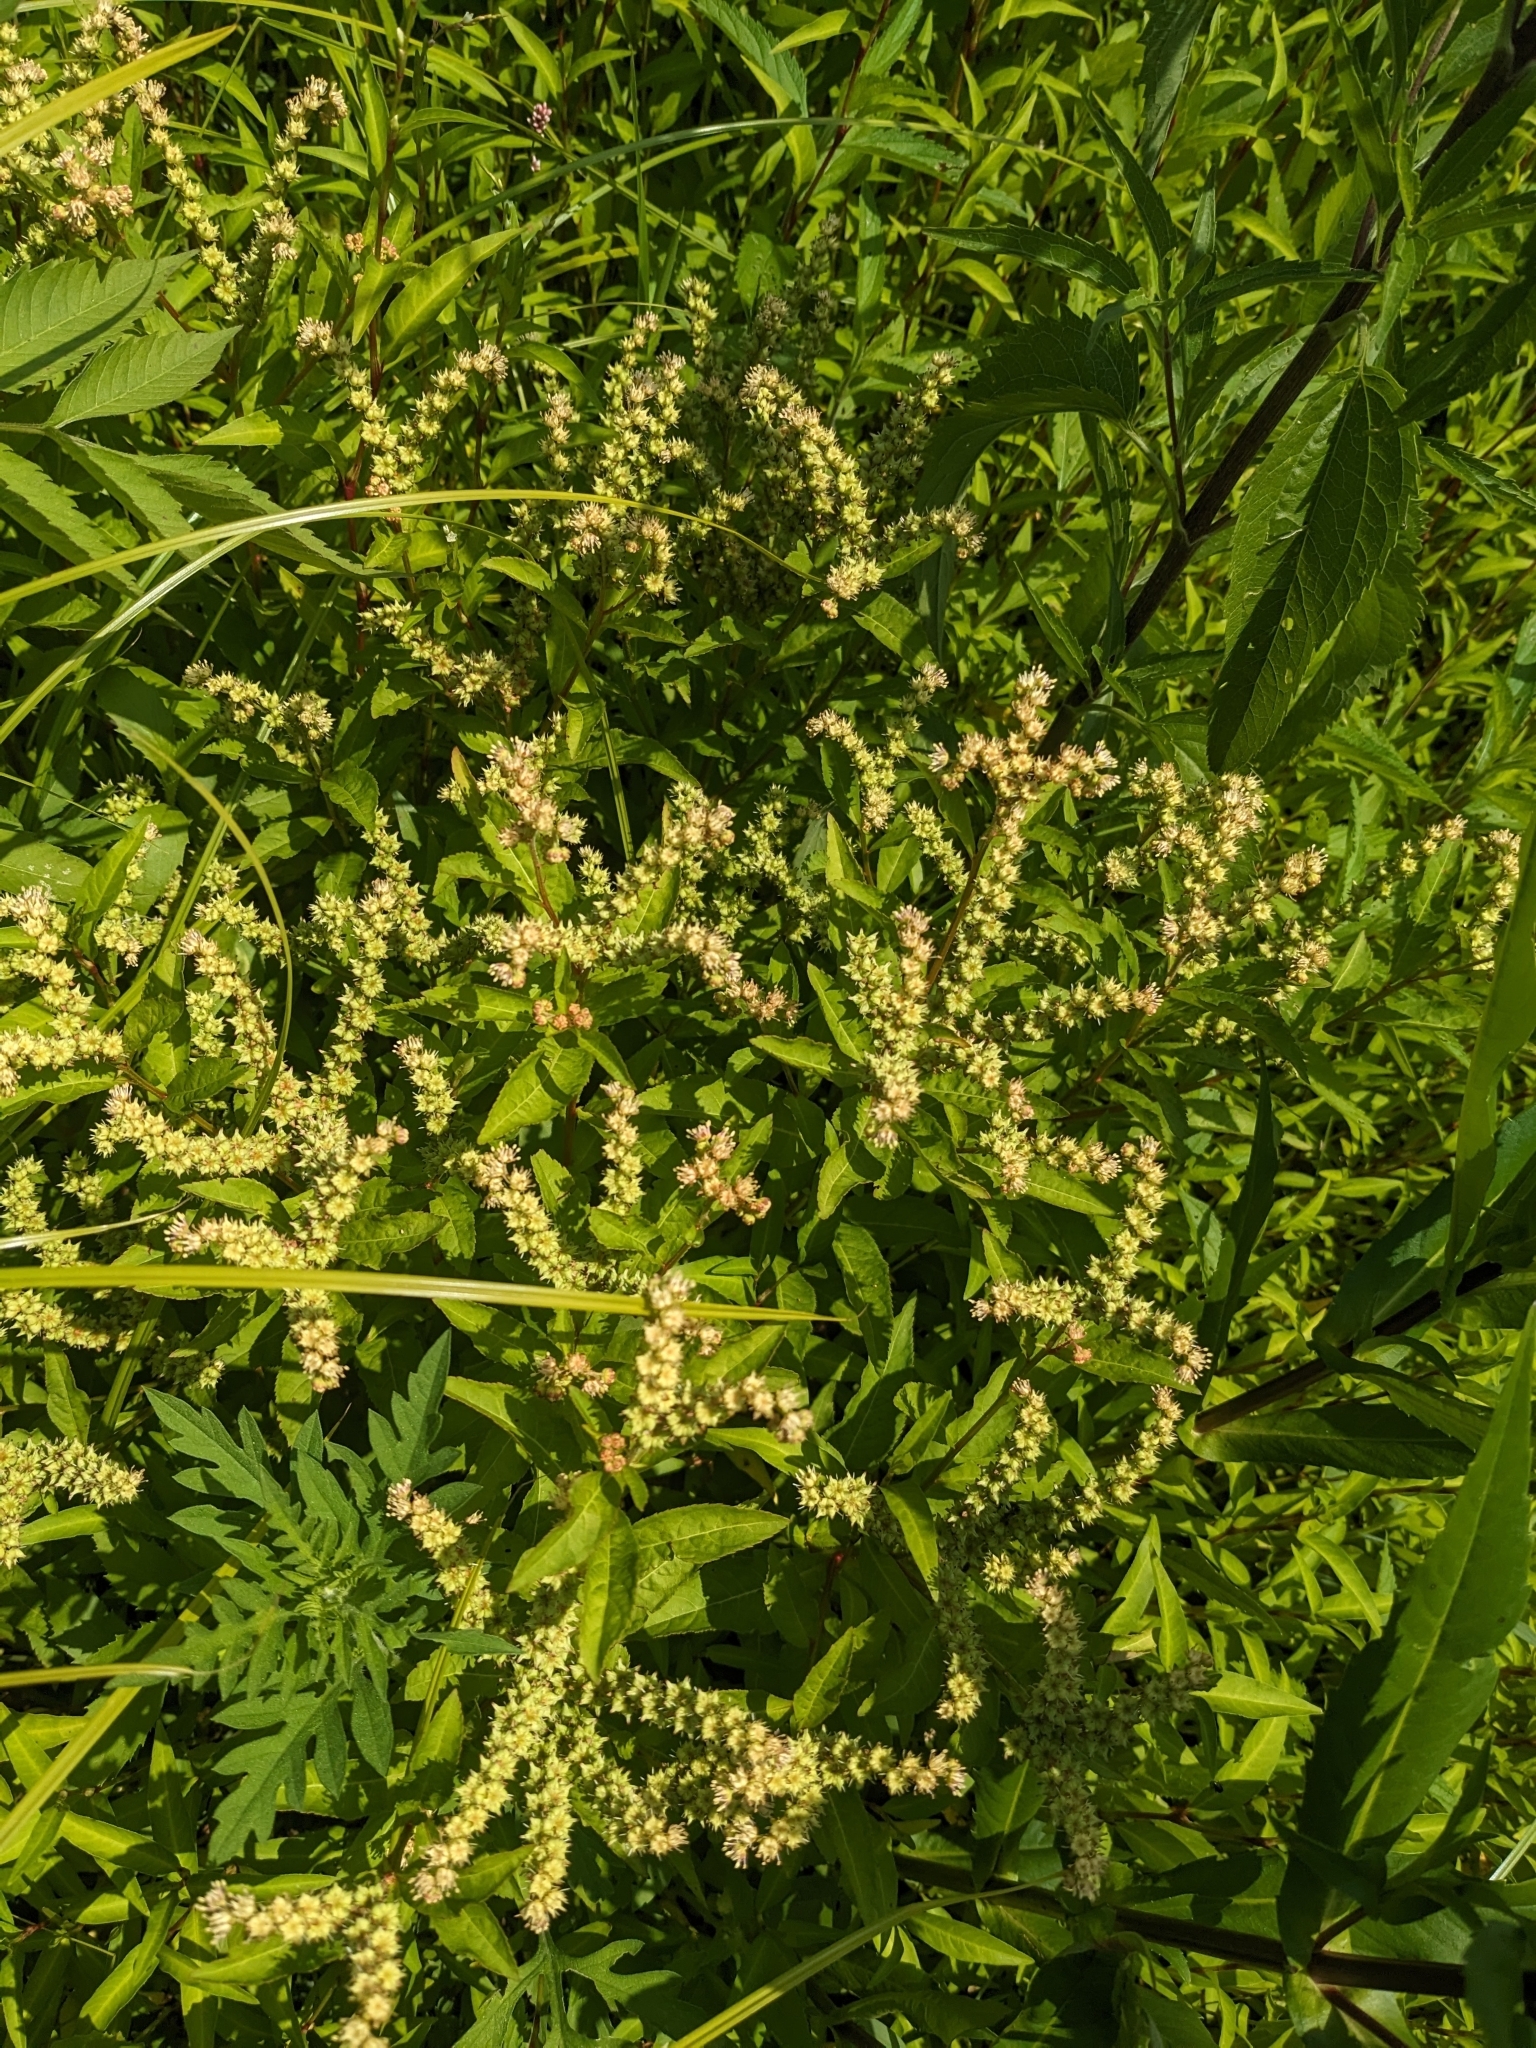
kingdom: Plantae
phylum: Tracheophyta
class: Magnoliopsida
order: Saxifragales
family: Penthoraceae
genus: Penthorum
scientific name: Penthorum sedoides
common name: Ditch stonecrop
